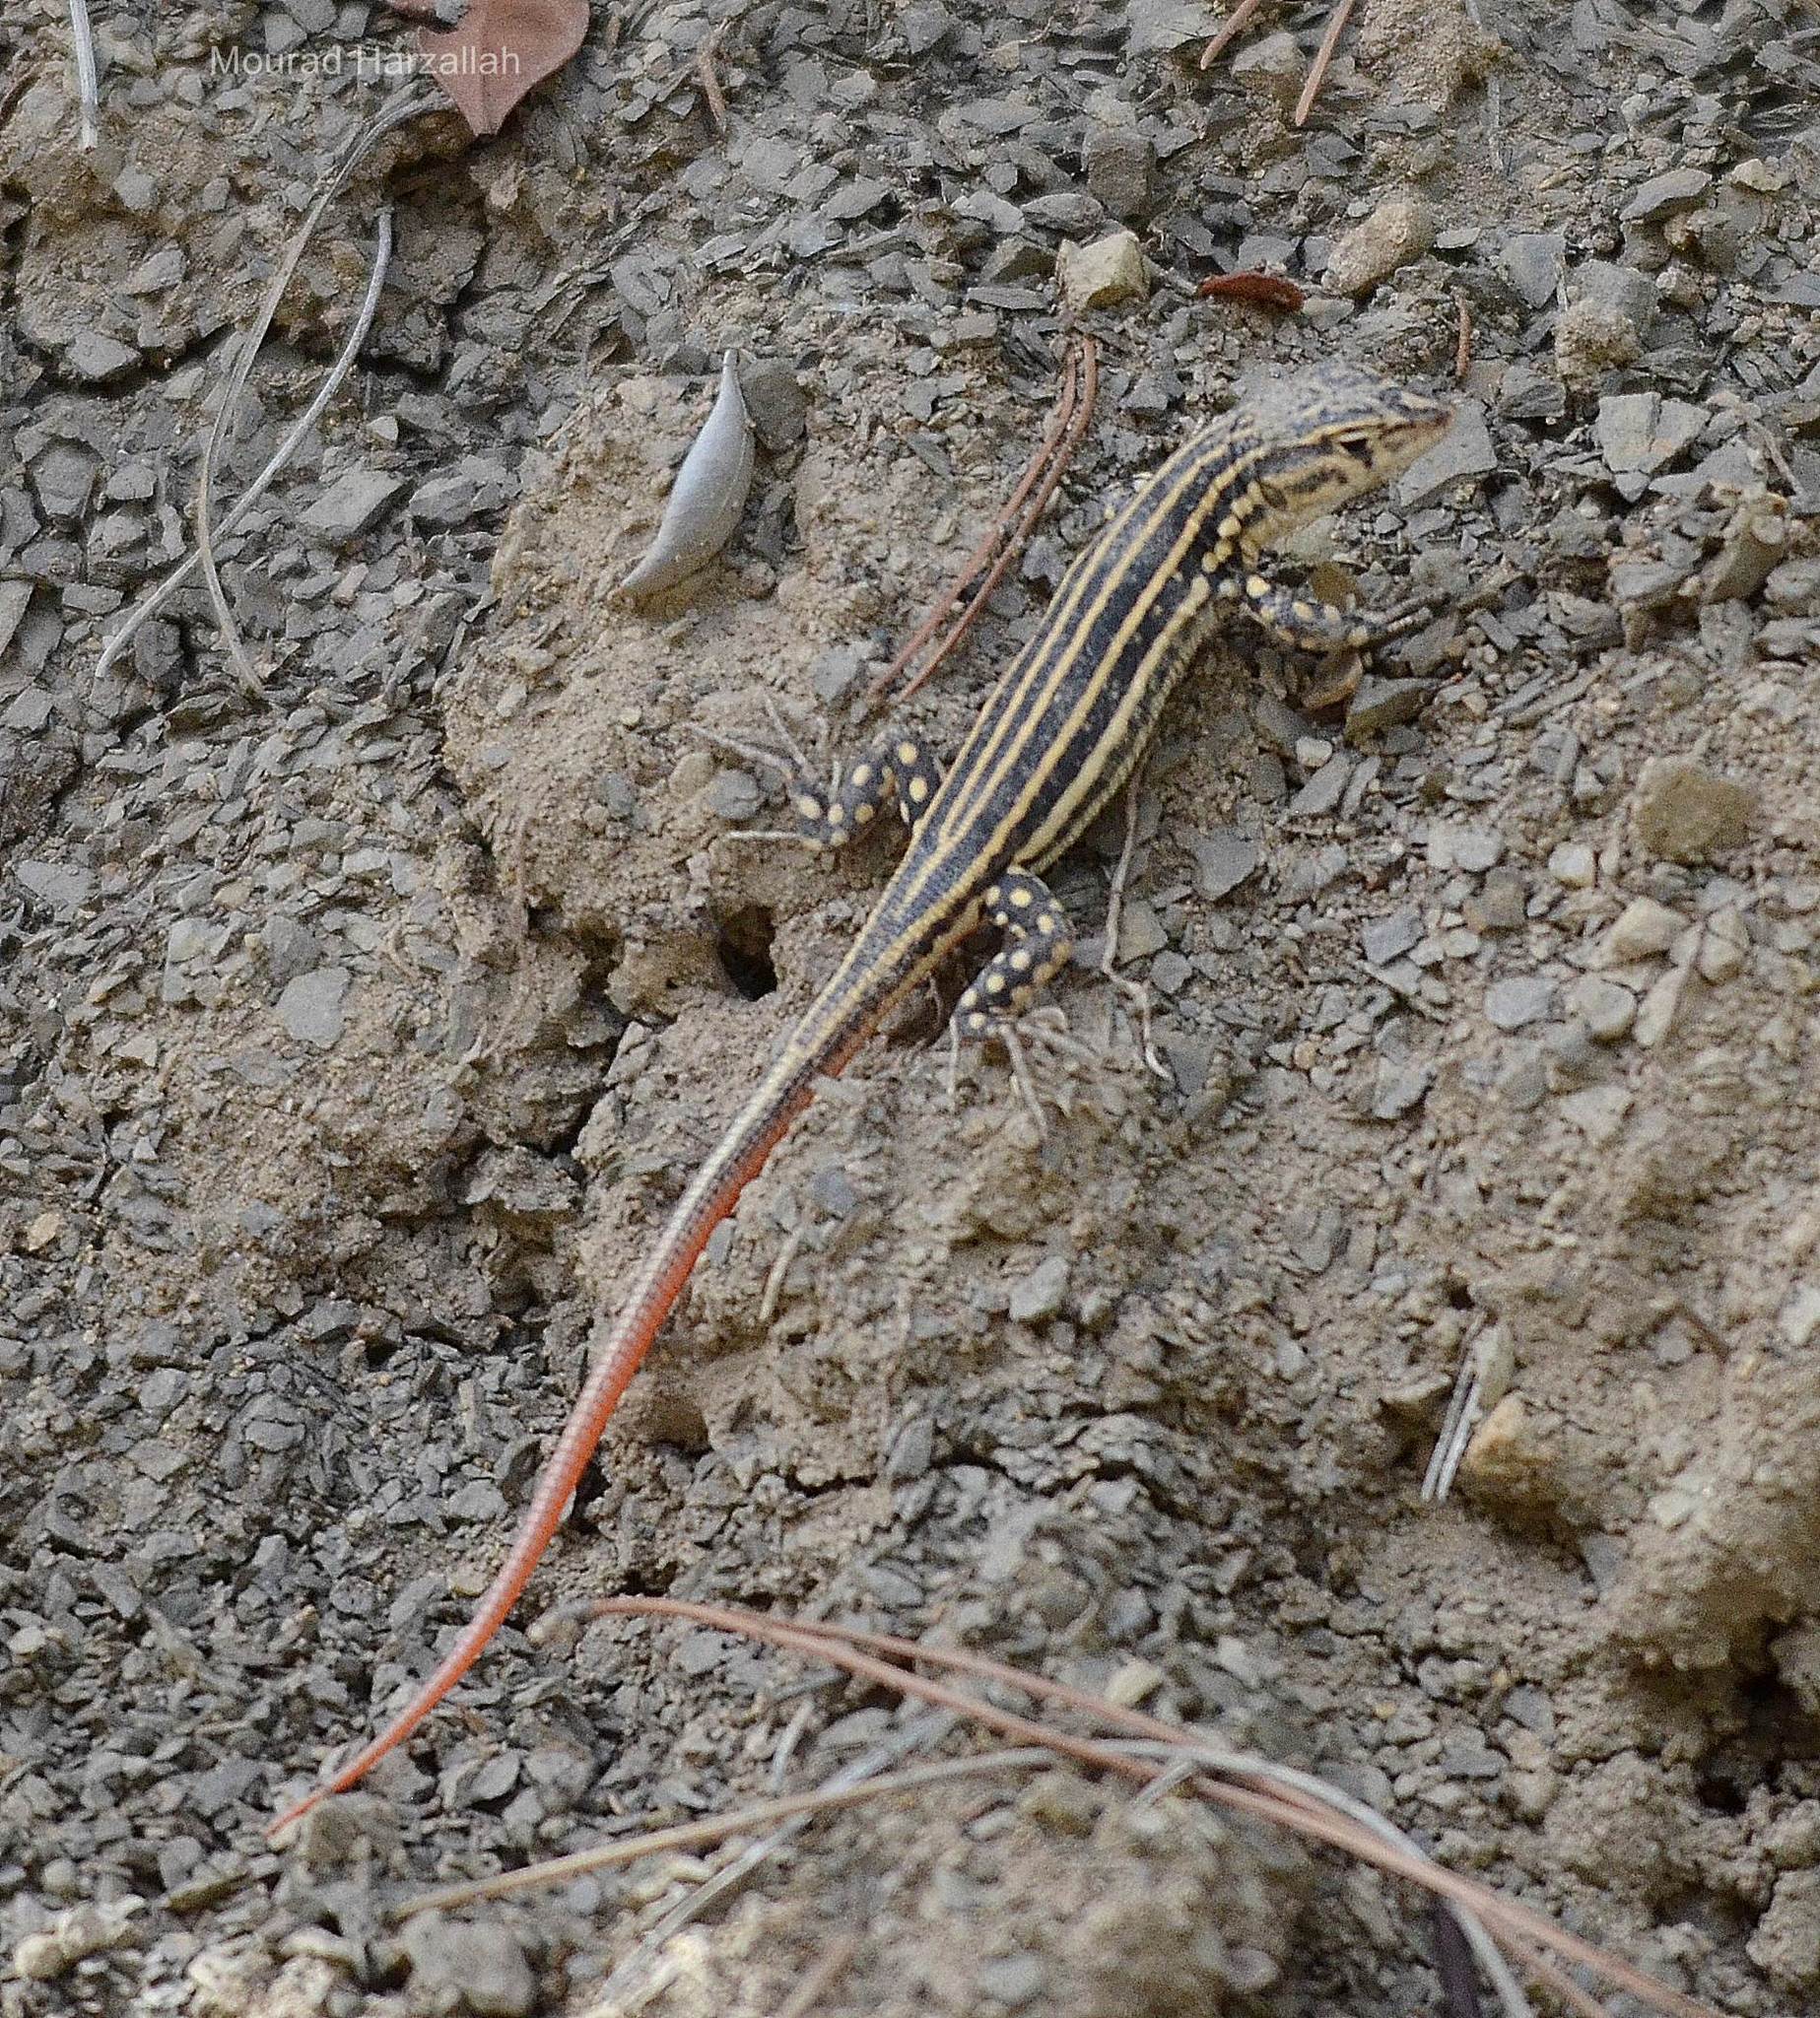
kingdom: Animalia
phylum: Chordata
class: Squamata
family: Lacertidae
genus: Acanthodactylus
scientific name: Acanthodactylus erythrurus
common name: Spiny-footed lizard
